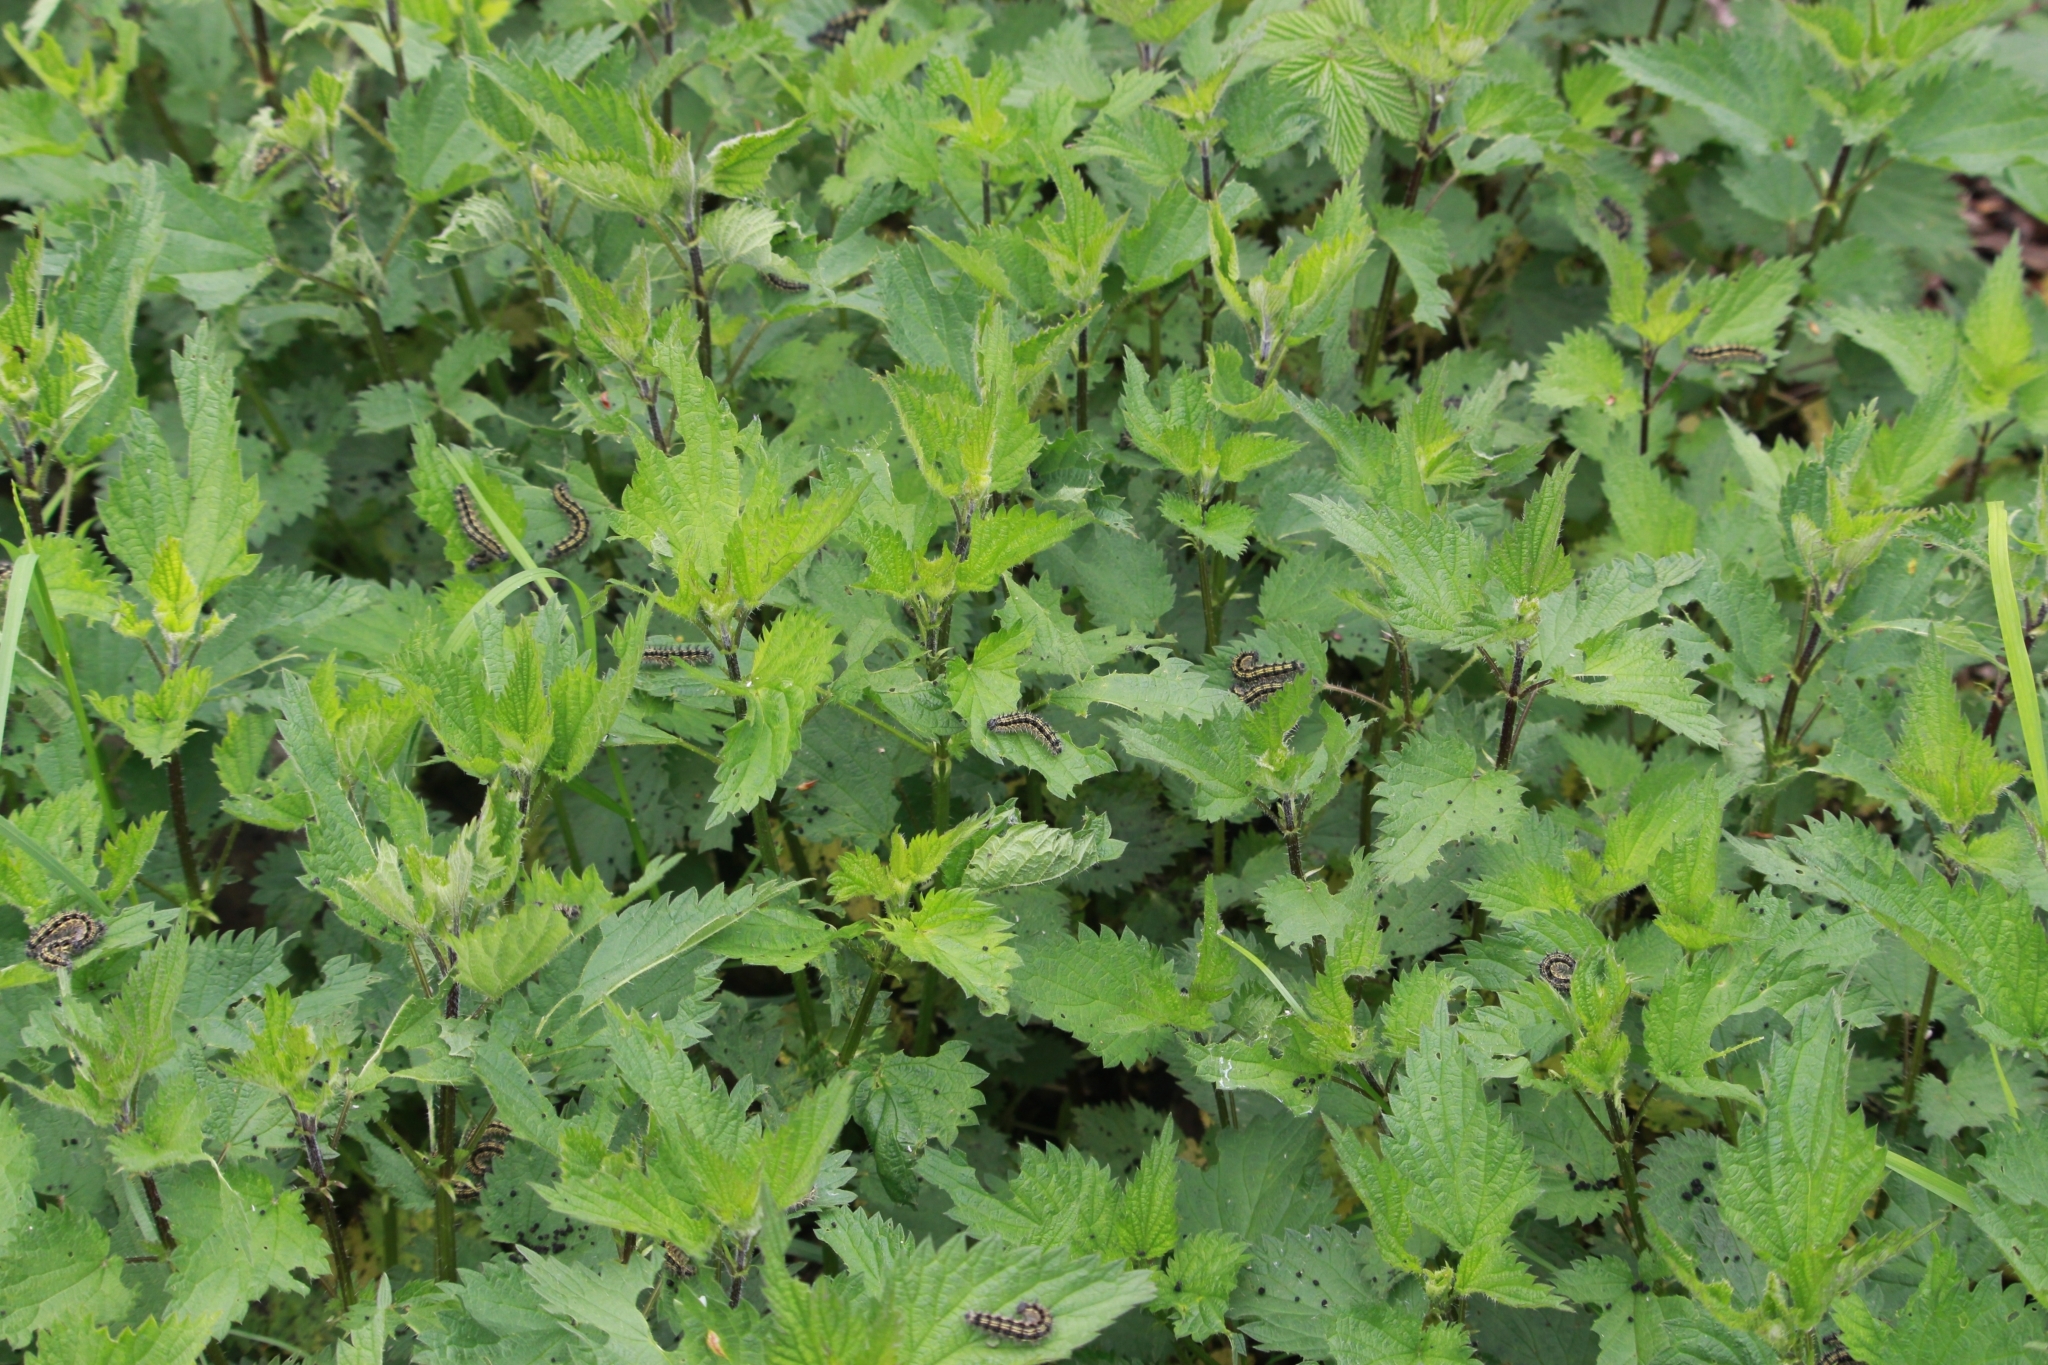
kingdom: Animalia
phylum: Arthropoda
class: Insecta
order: Lepidoptera
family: Nymphalidae
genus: Aglais
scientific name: Aglais urticae
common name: Small tortoiseshell
